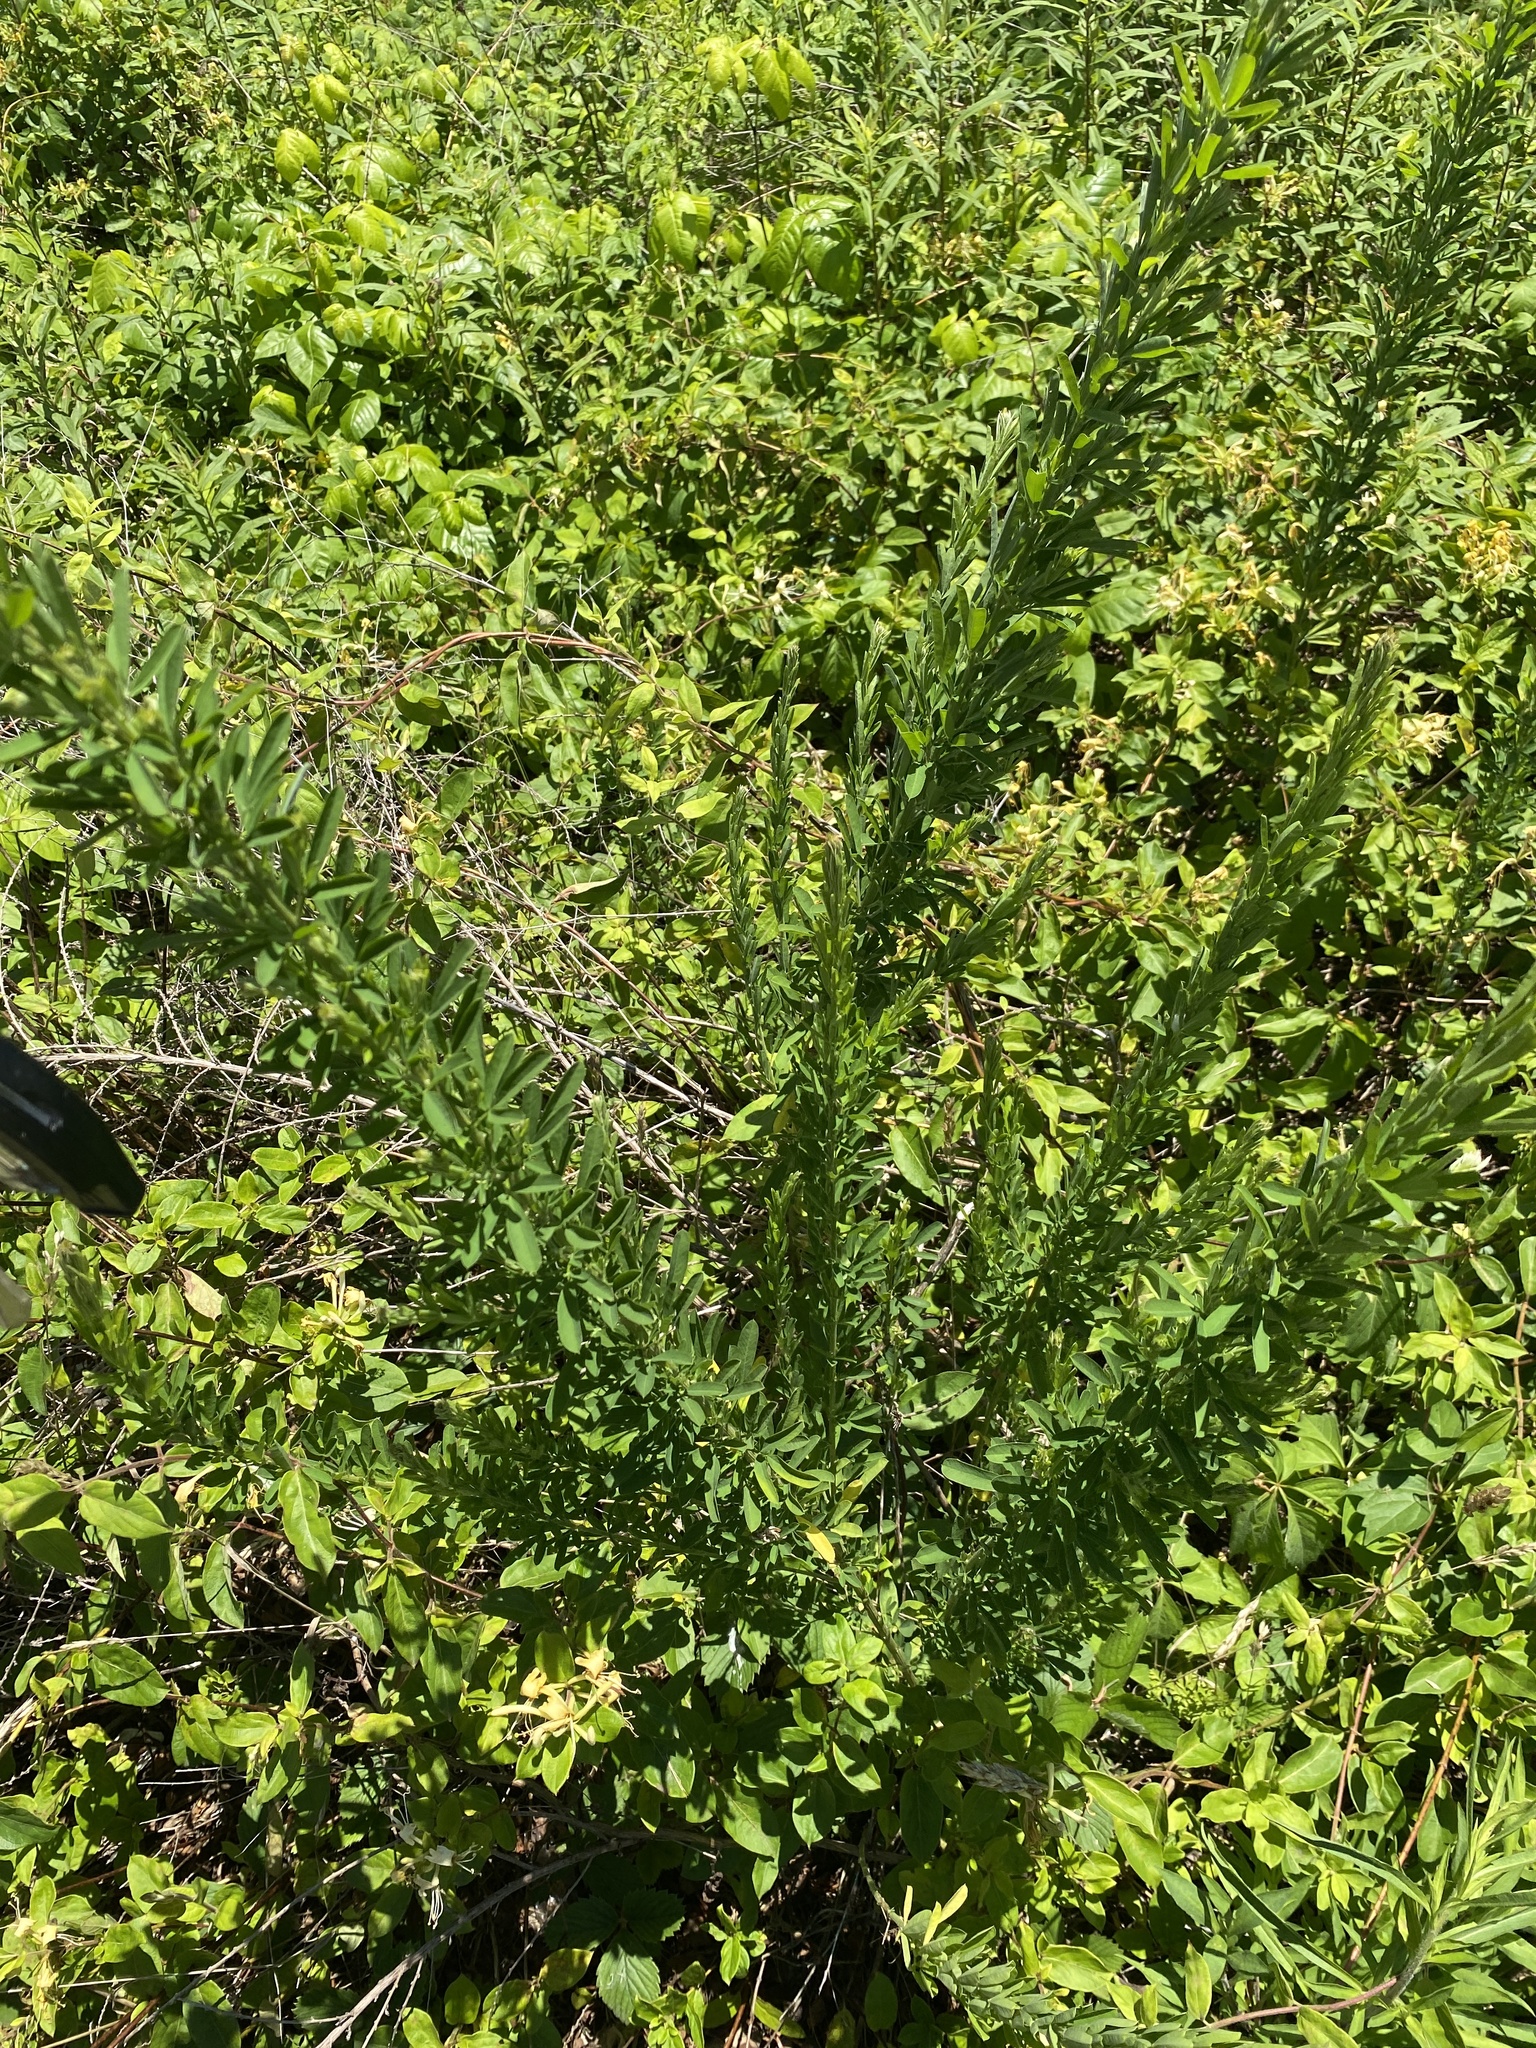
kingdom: Plantae
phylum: Tracheophyta
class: Magnoliopsida
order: Fabales
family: Fabaceae
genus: Lespedeza
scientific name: Lespedeza cuneata
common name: Chinese bush-clover
